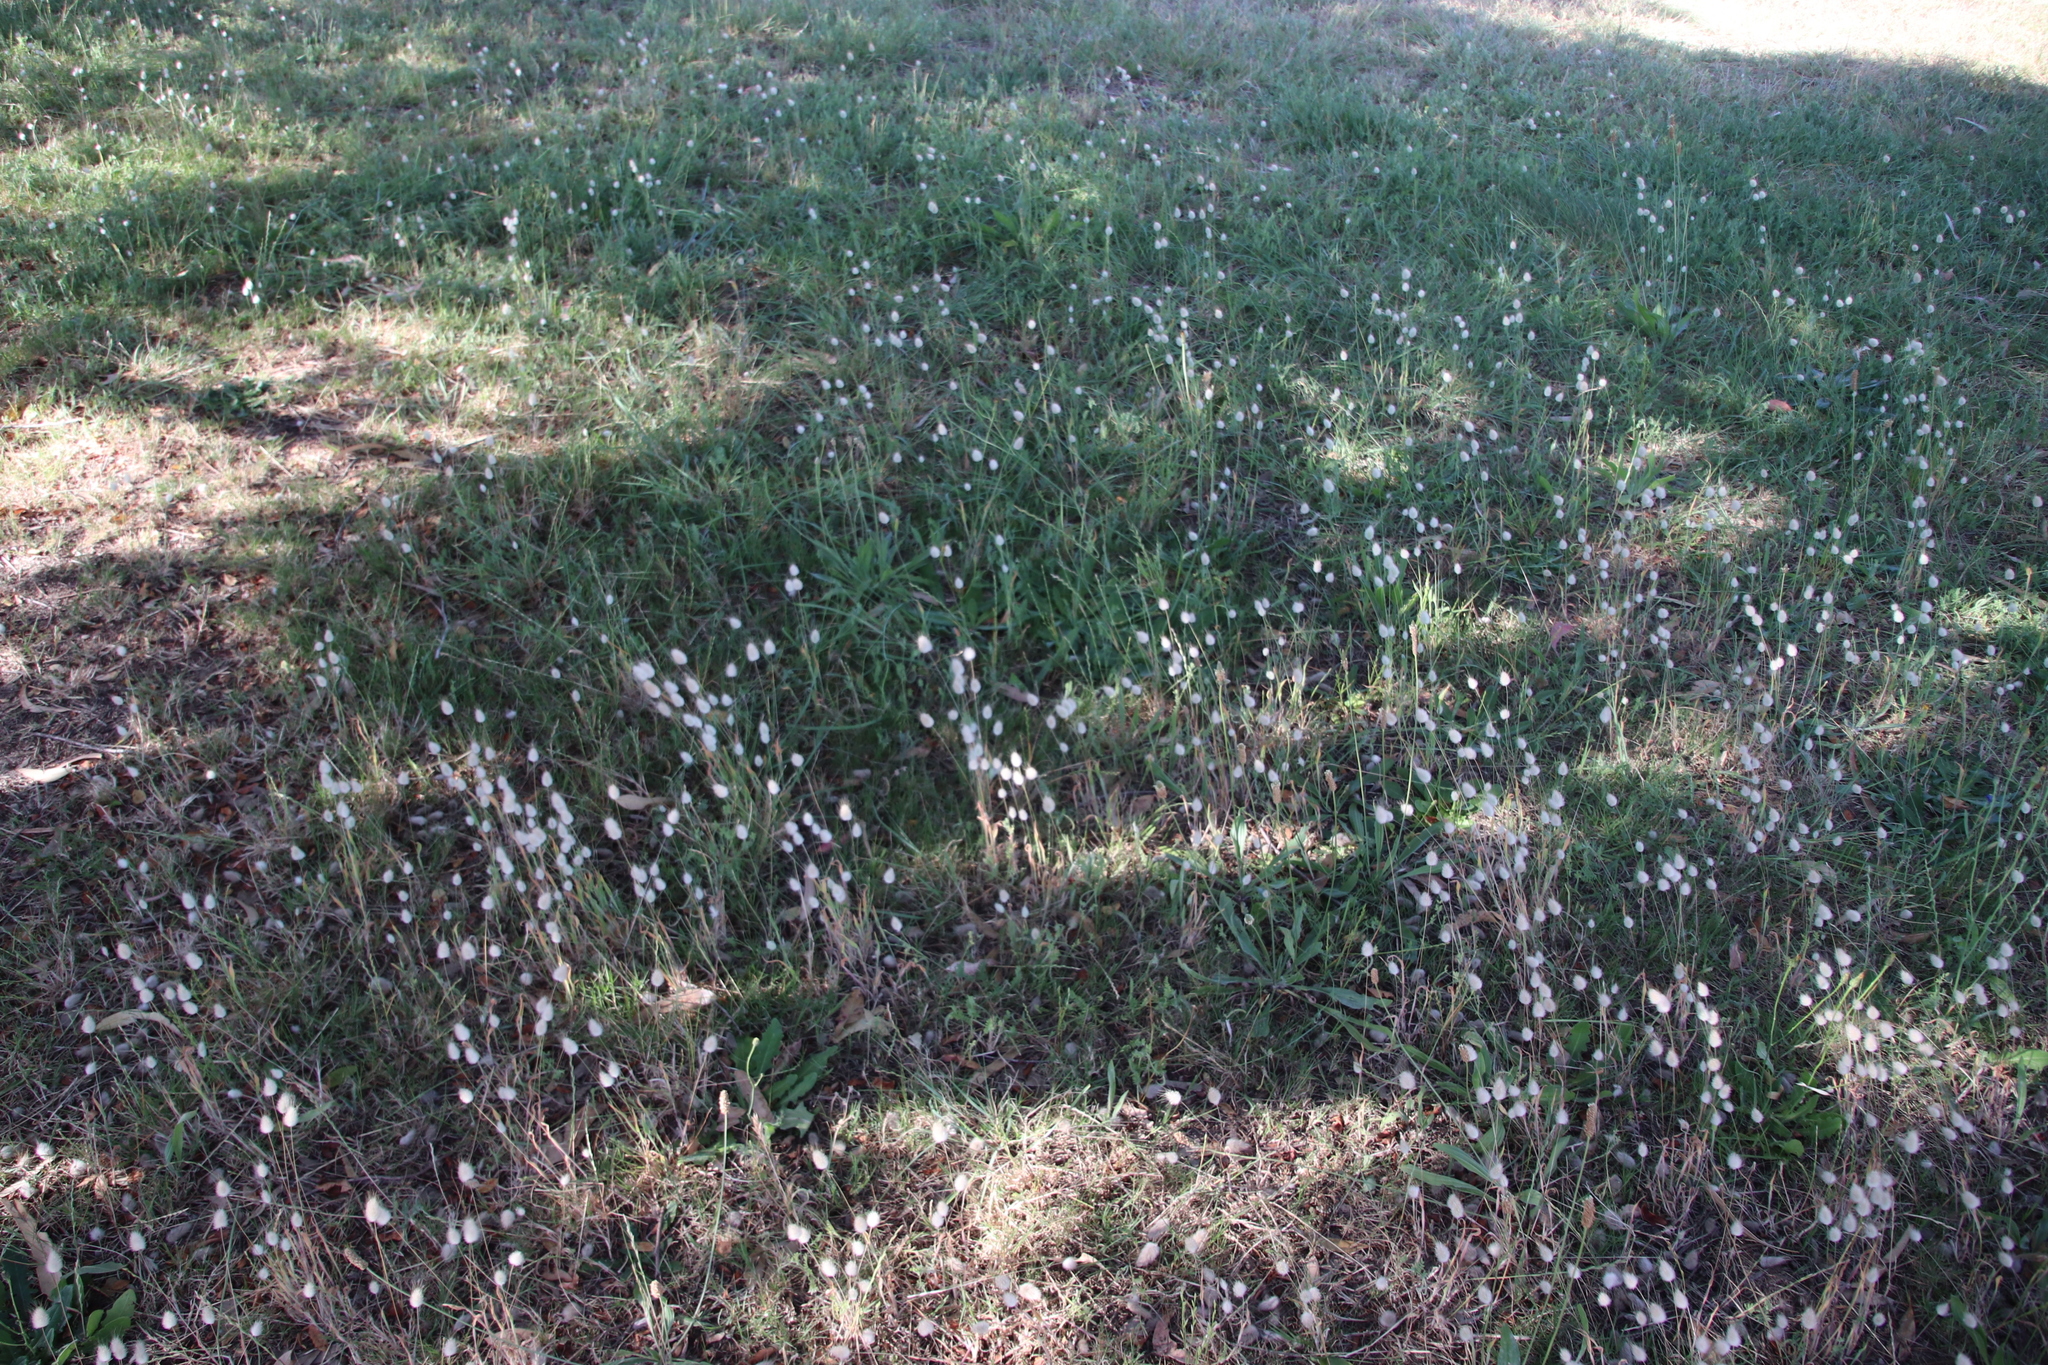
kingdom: Plantae
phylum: Tracheophyta
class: Liliopsida
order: Poales
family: Poaceae
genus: Lagurus
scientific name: Lagurus ovatus
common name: Hare's-tail
